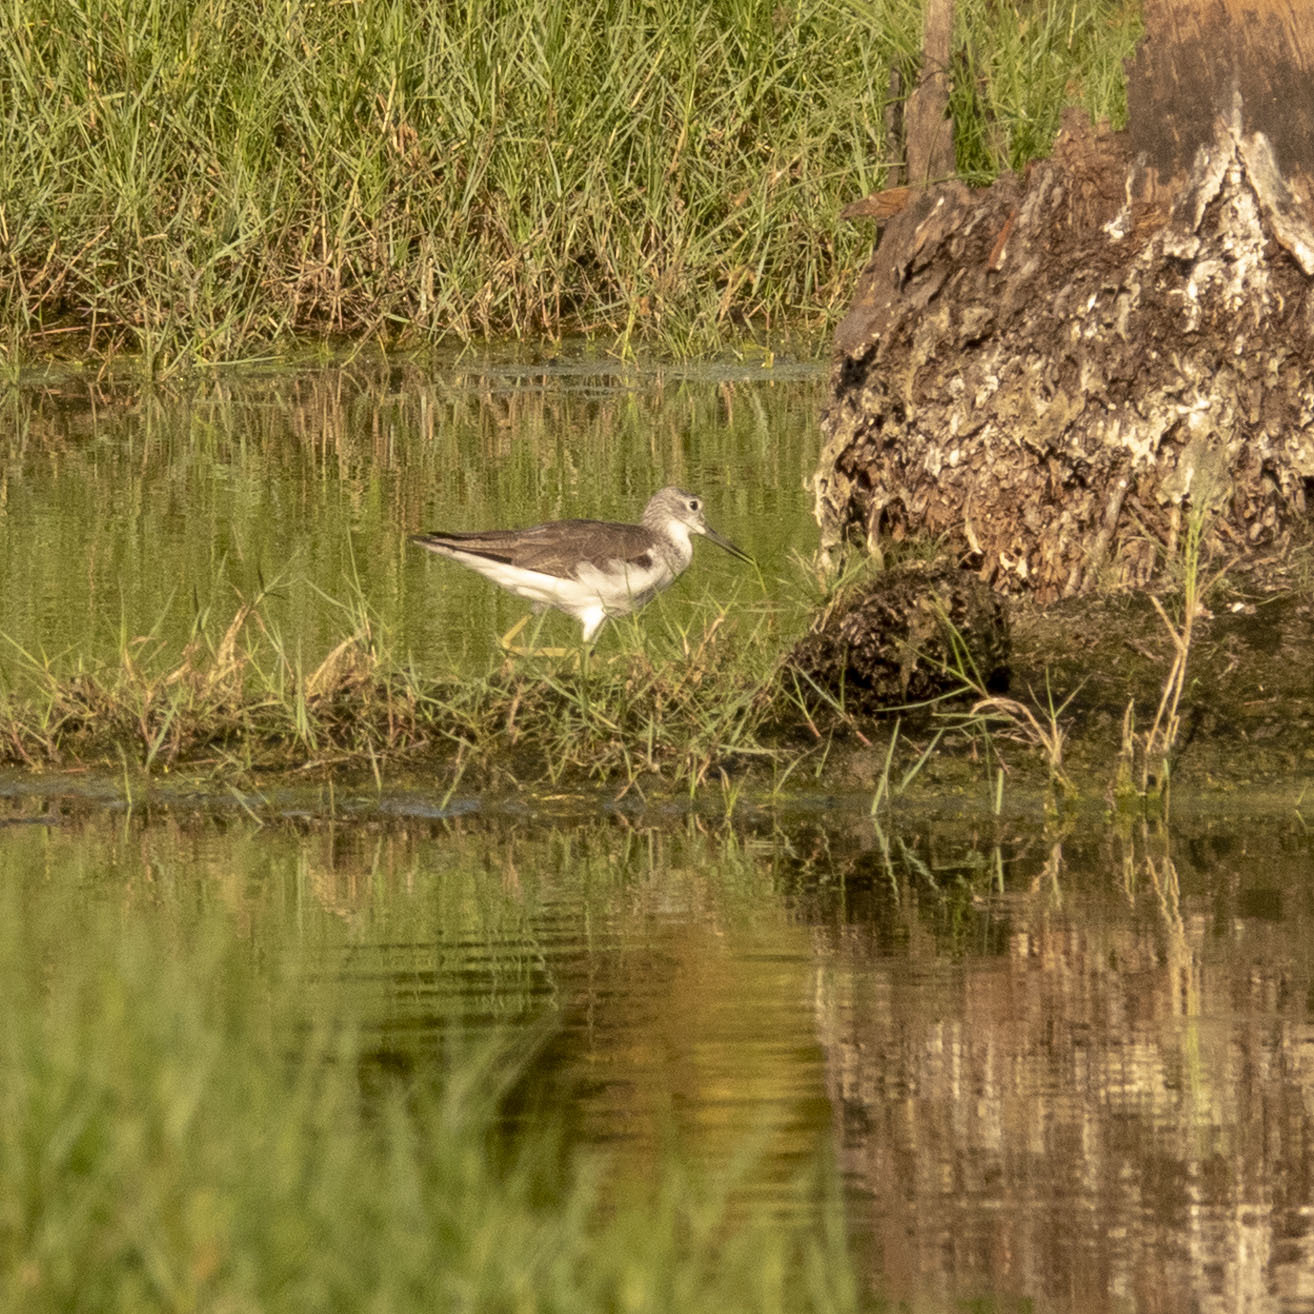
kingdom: Animalia
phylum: Chordata
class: Aves
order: Charadriiformes
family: Scolopacidae
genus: Tringa
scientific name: Tringa nebularia
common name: Common greenshank
